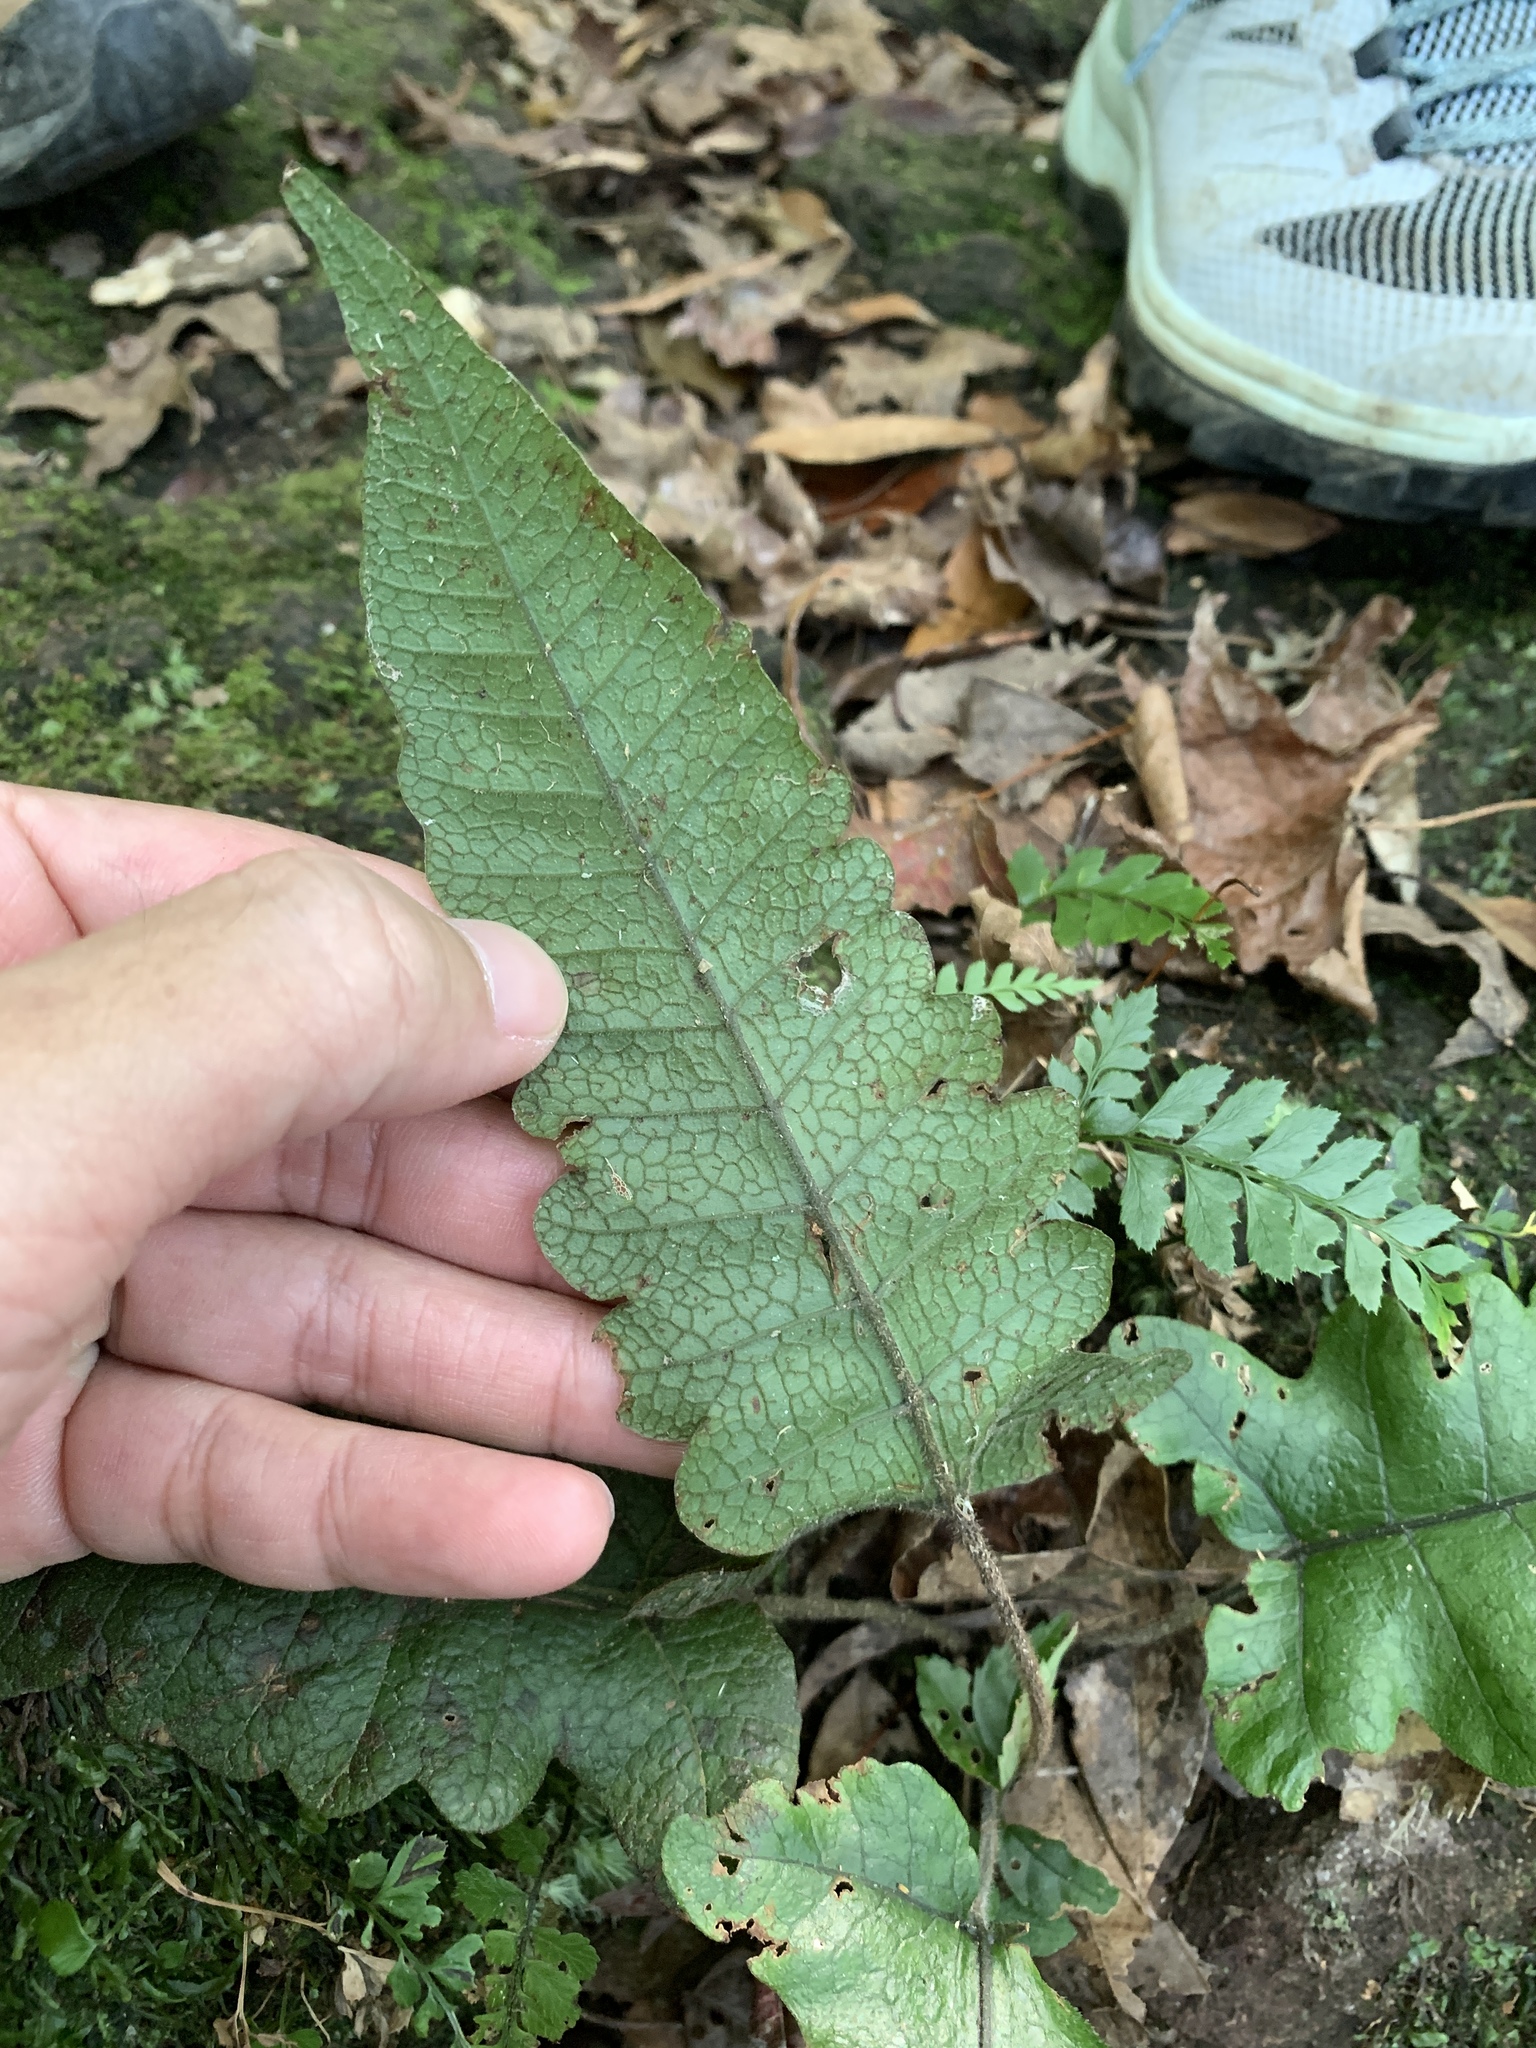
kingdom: Plantae
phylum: Tracheophyta
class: Polypodiopsida
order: Polypodiales
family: Thelypteridaceae
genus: Stegnogramma
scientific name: Stegnogramma wilfordii
